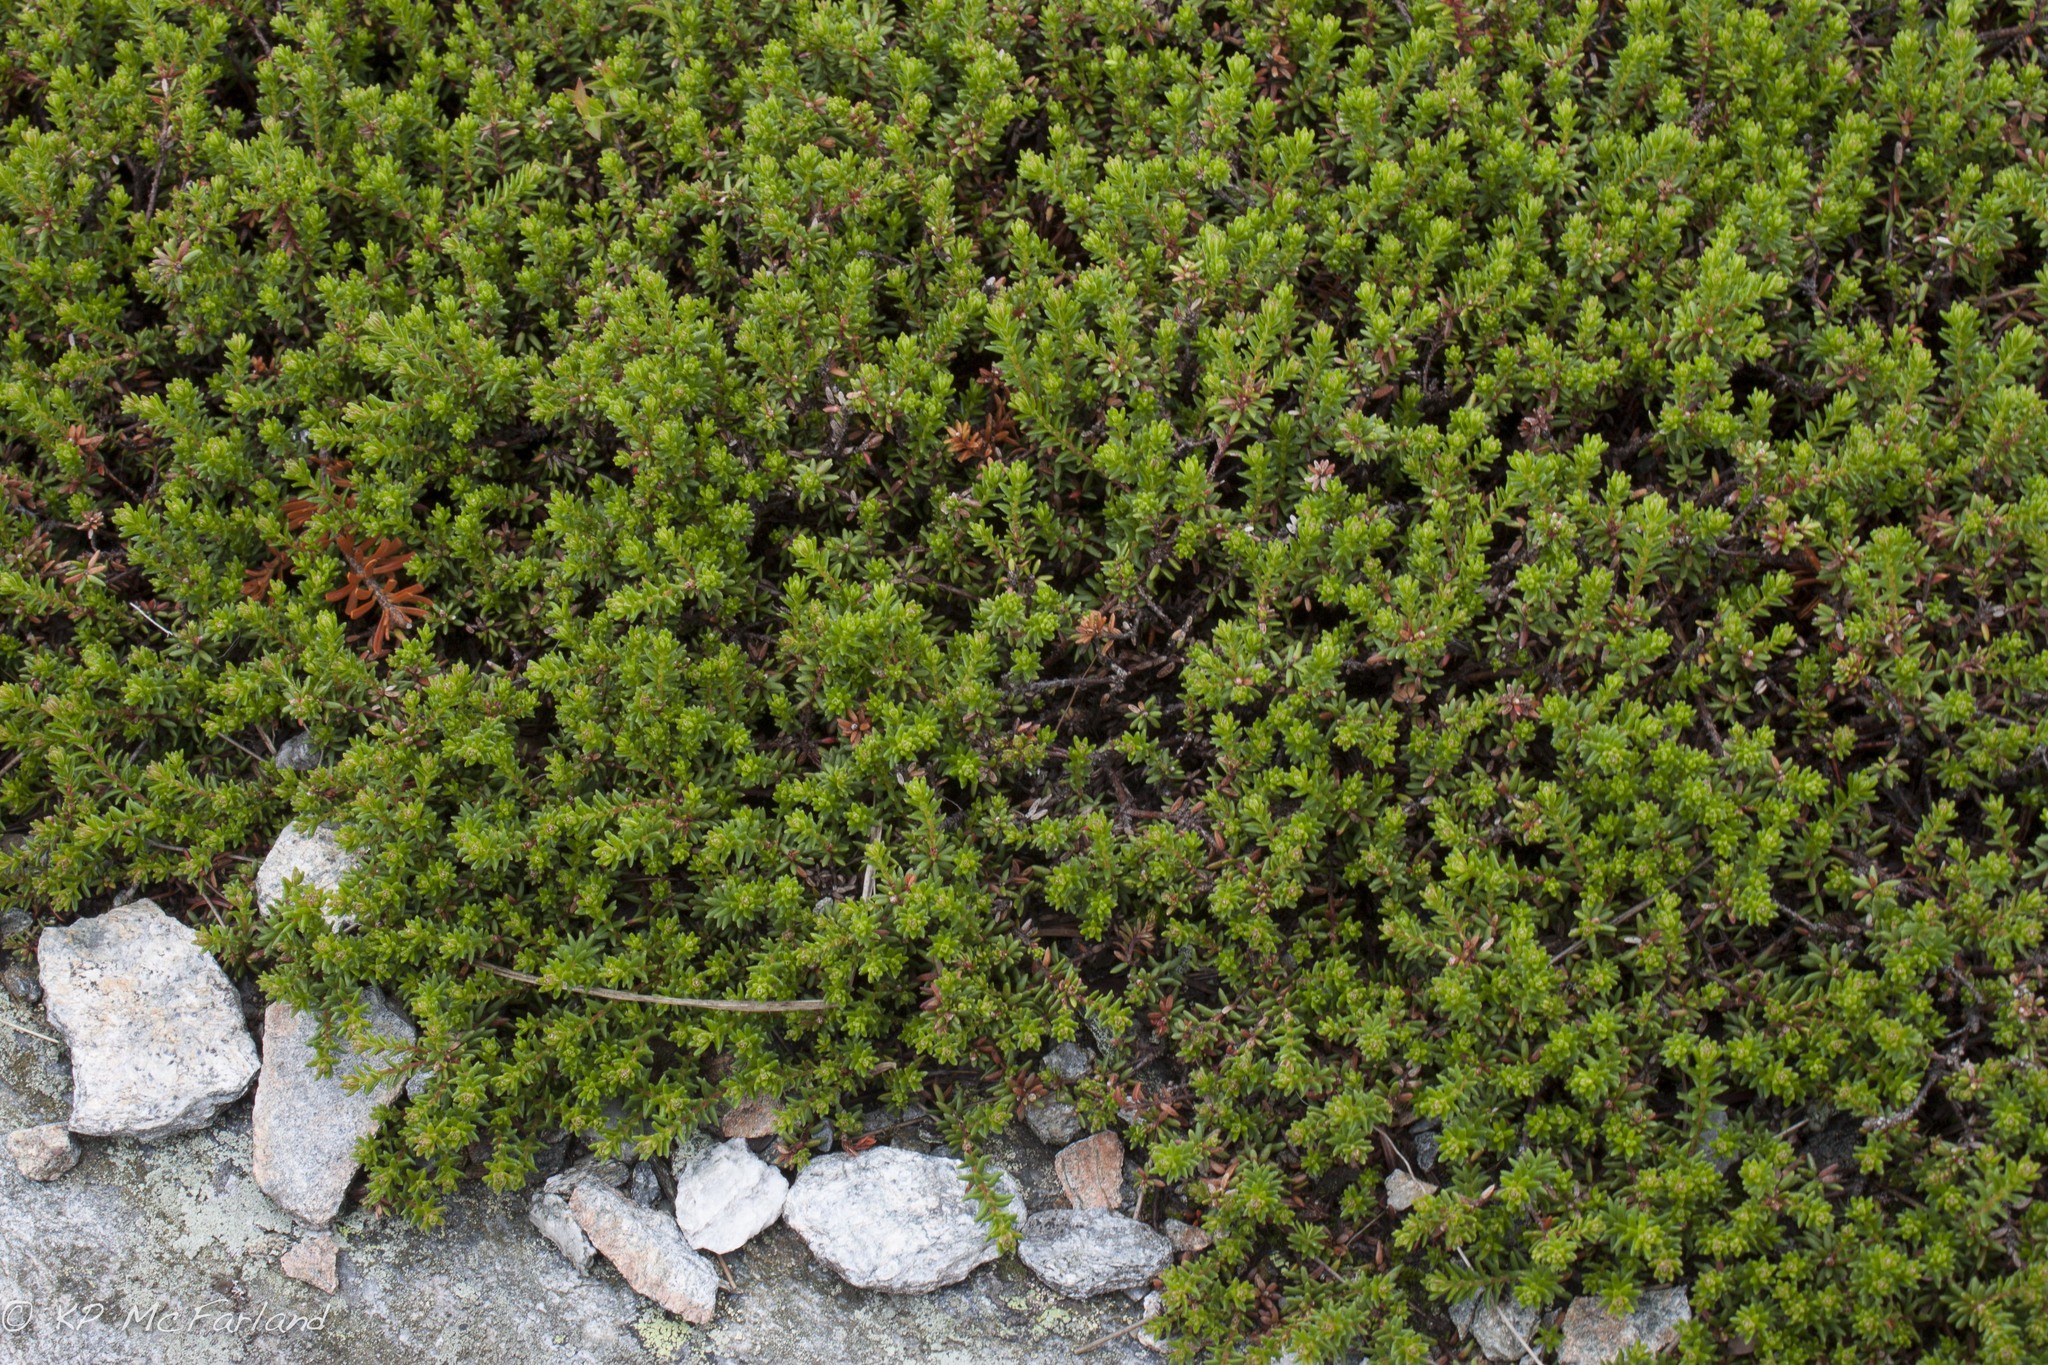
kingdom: Plantae
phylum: Tracheophyta
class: Magnoliopsida
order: Ericales
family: Ericaceae
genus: Empetrum
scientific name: Empetrum nigrum
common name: Black crowberry
